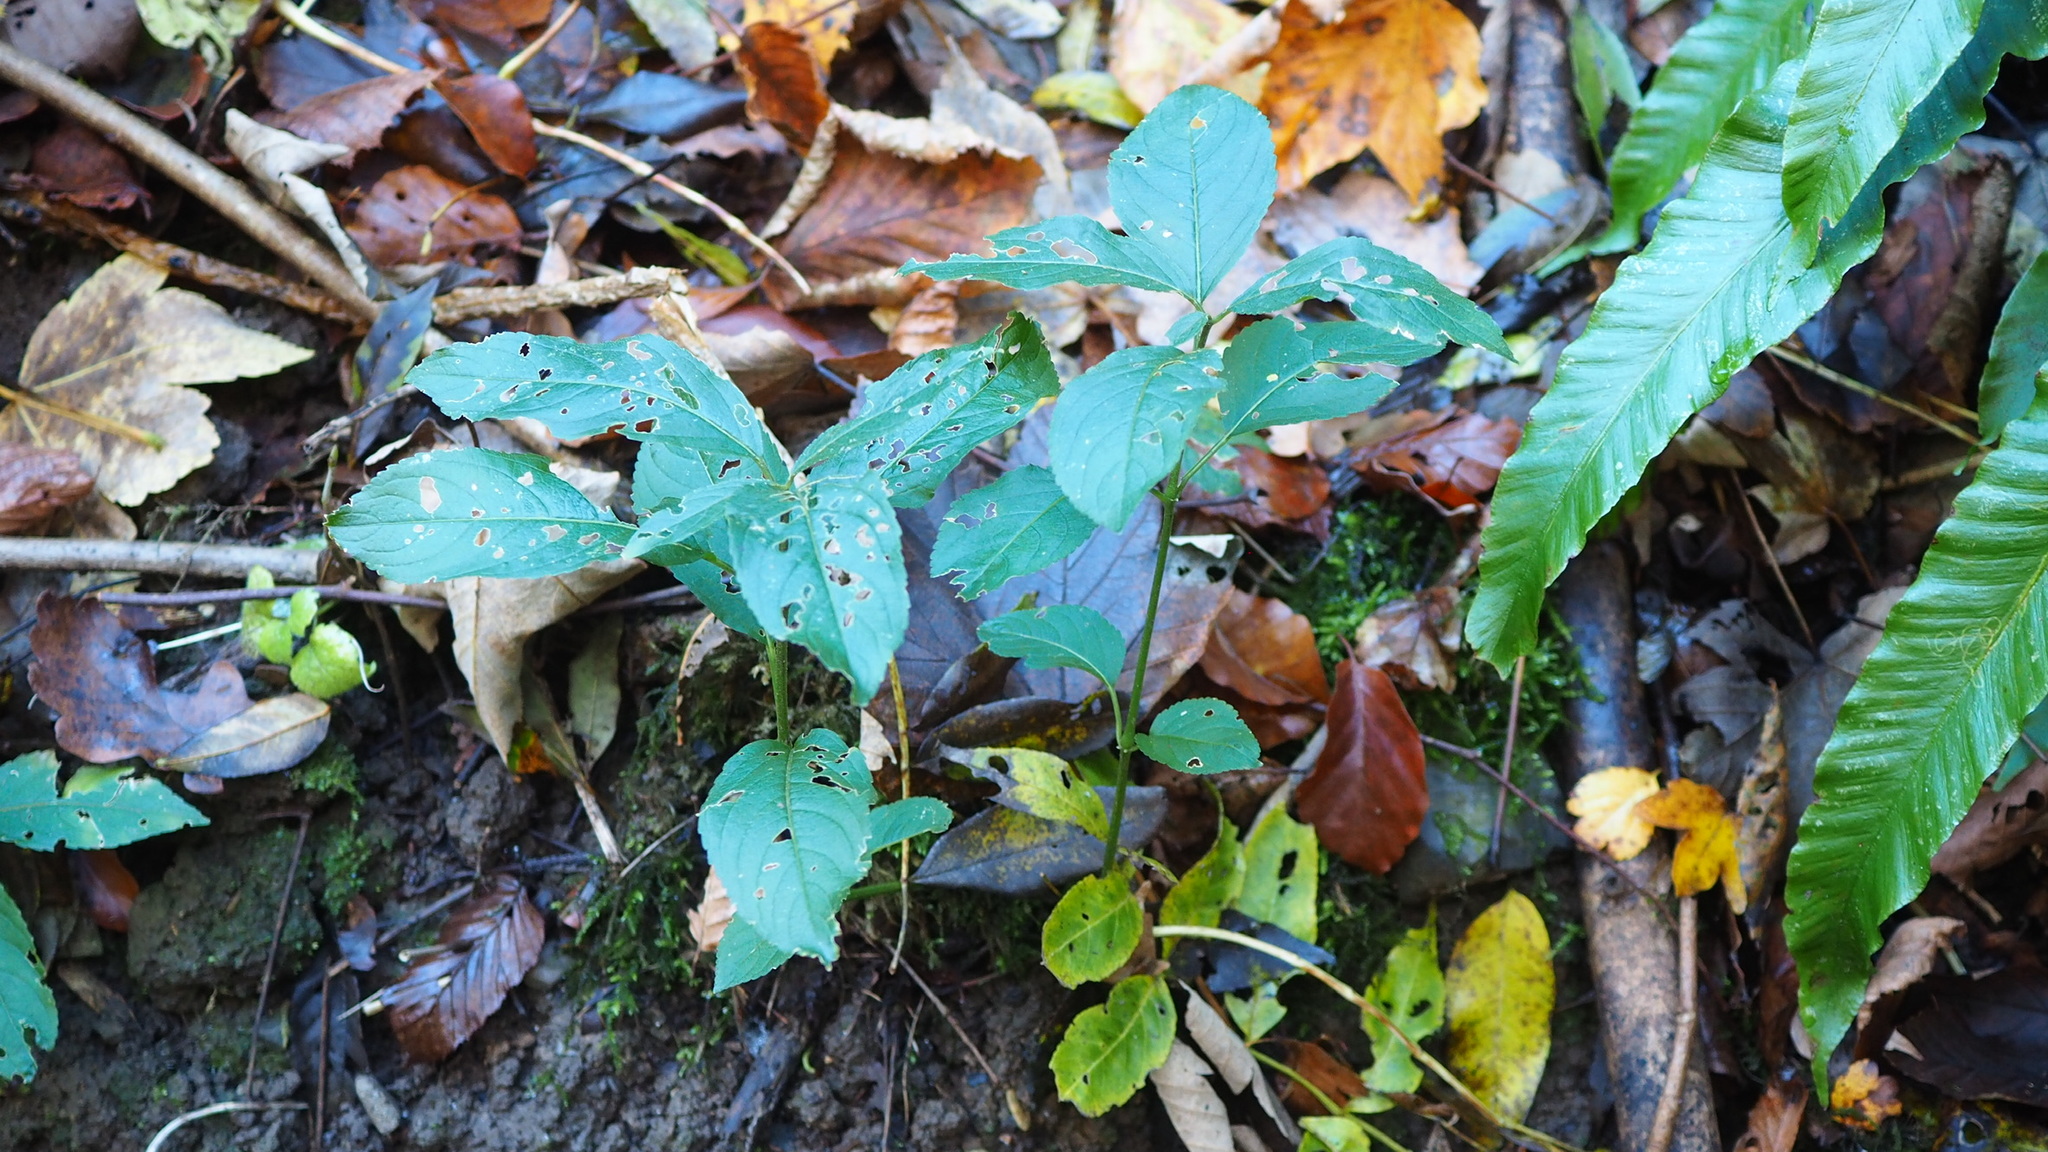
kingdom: Plantae
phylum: Tracheophyta
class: Magnoliopsida
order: Malpighiales
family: Euphorbiaceae
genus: Mercurialis
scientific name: Mercurialis perennis
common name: Dog mercury
